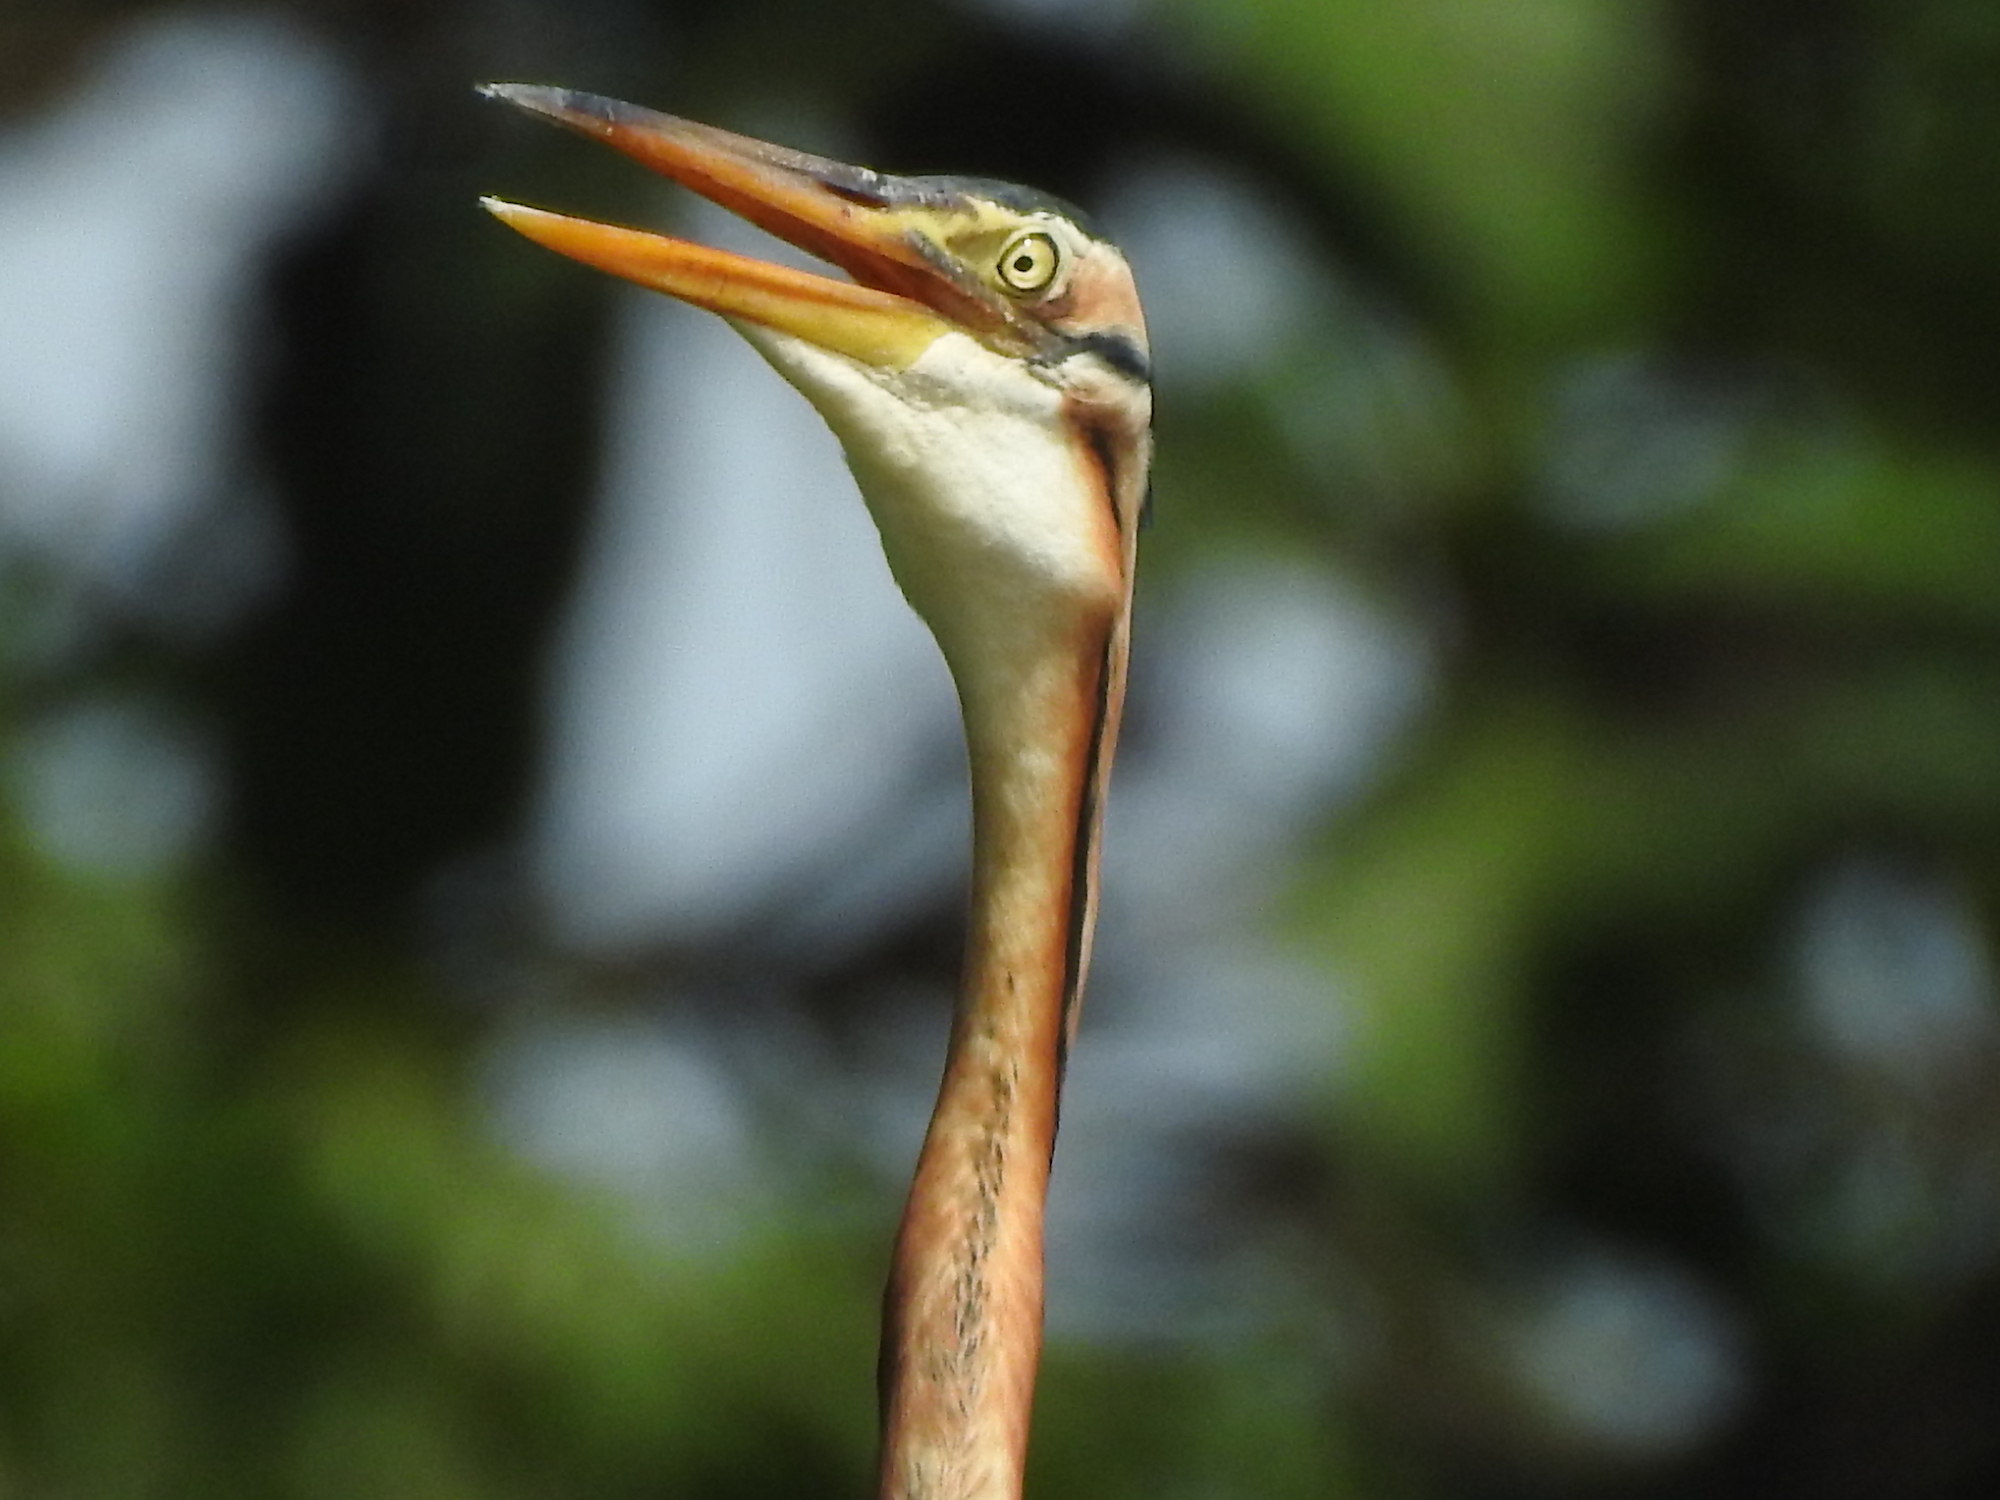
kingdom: Animalia
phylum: Chordata
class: Aves
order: Pelecaniformes
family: Ardeidae
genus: Ardea
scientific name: Ardea purpurea
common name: Purple heron
